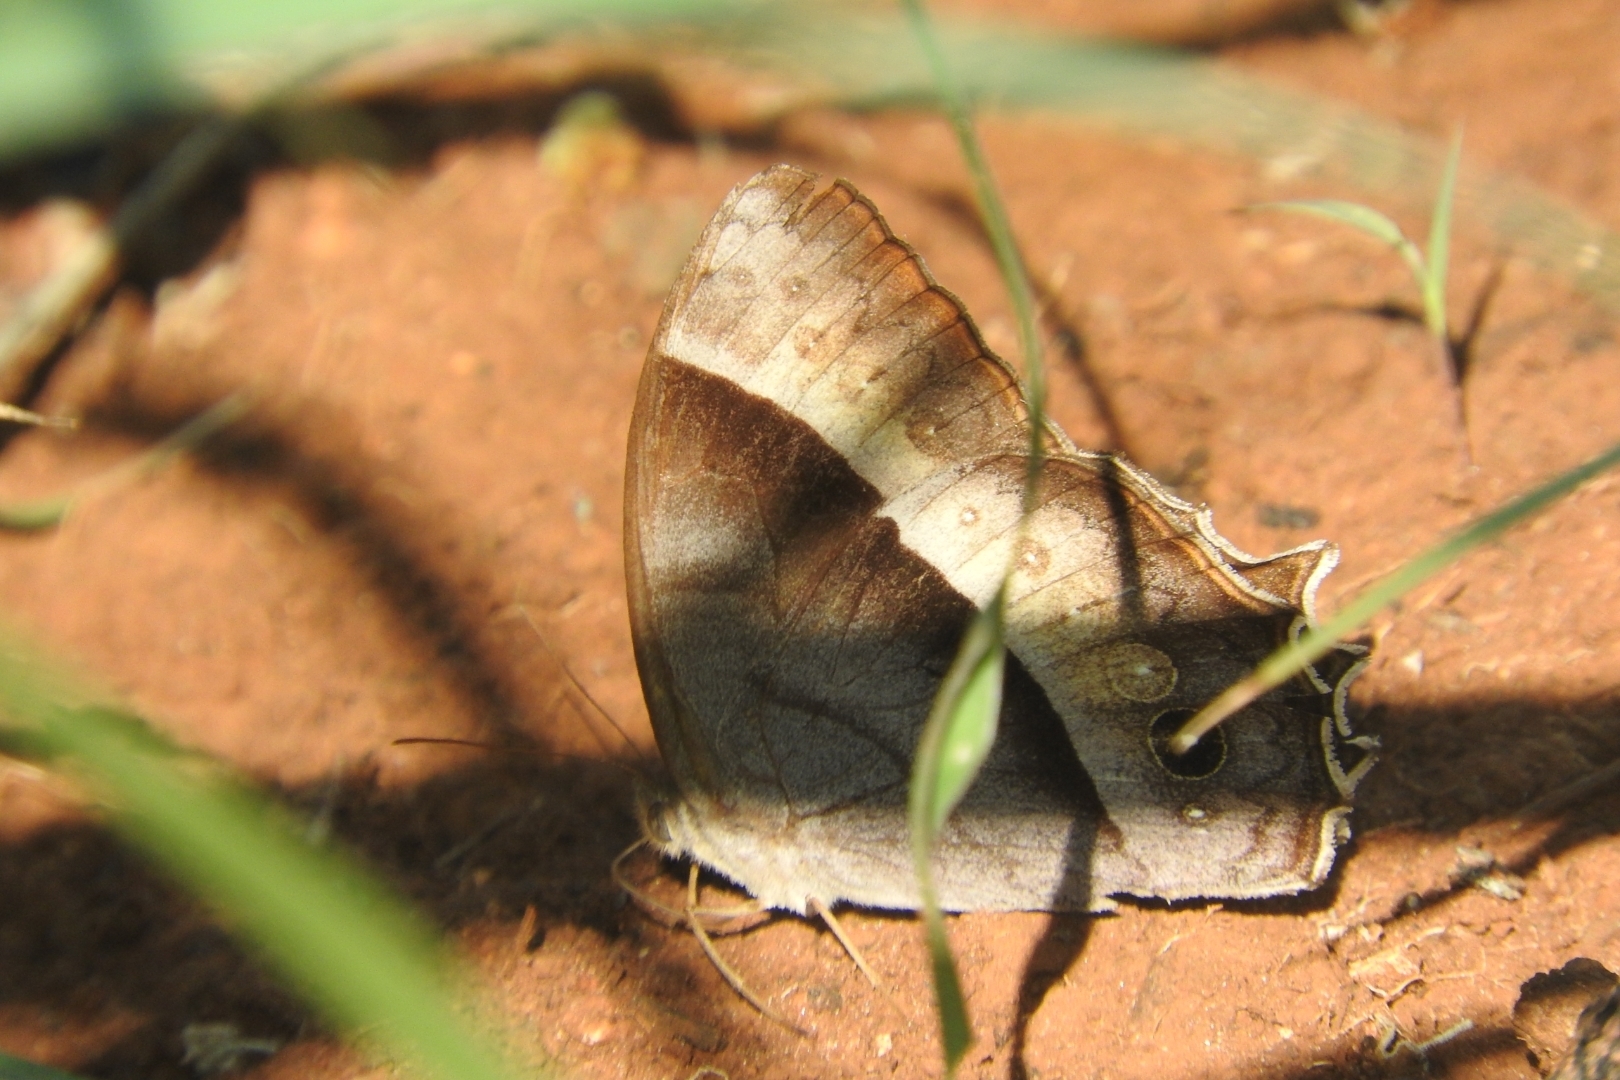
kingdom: Animalia
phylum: Arthropoda
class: Insecta
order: Lepidoptera
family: Nymphalidae
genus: Taygetis
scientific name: Taygetis inconspicua
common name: Inconspicuous satyr
